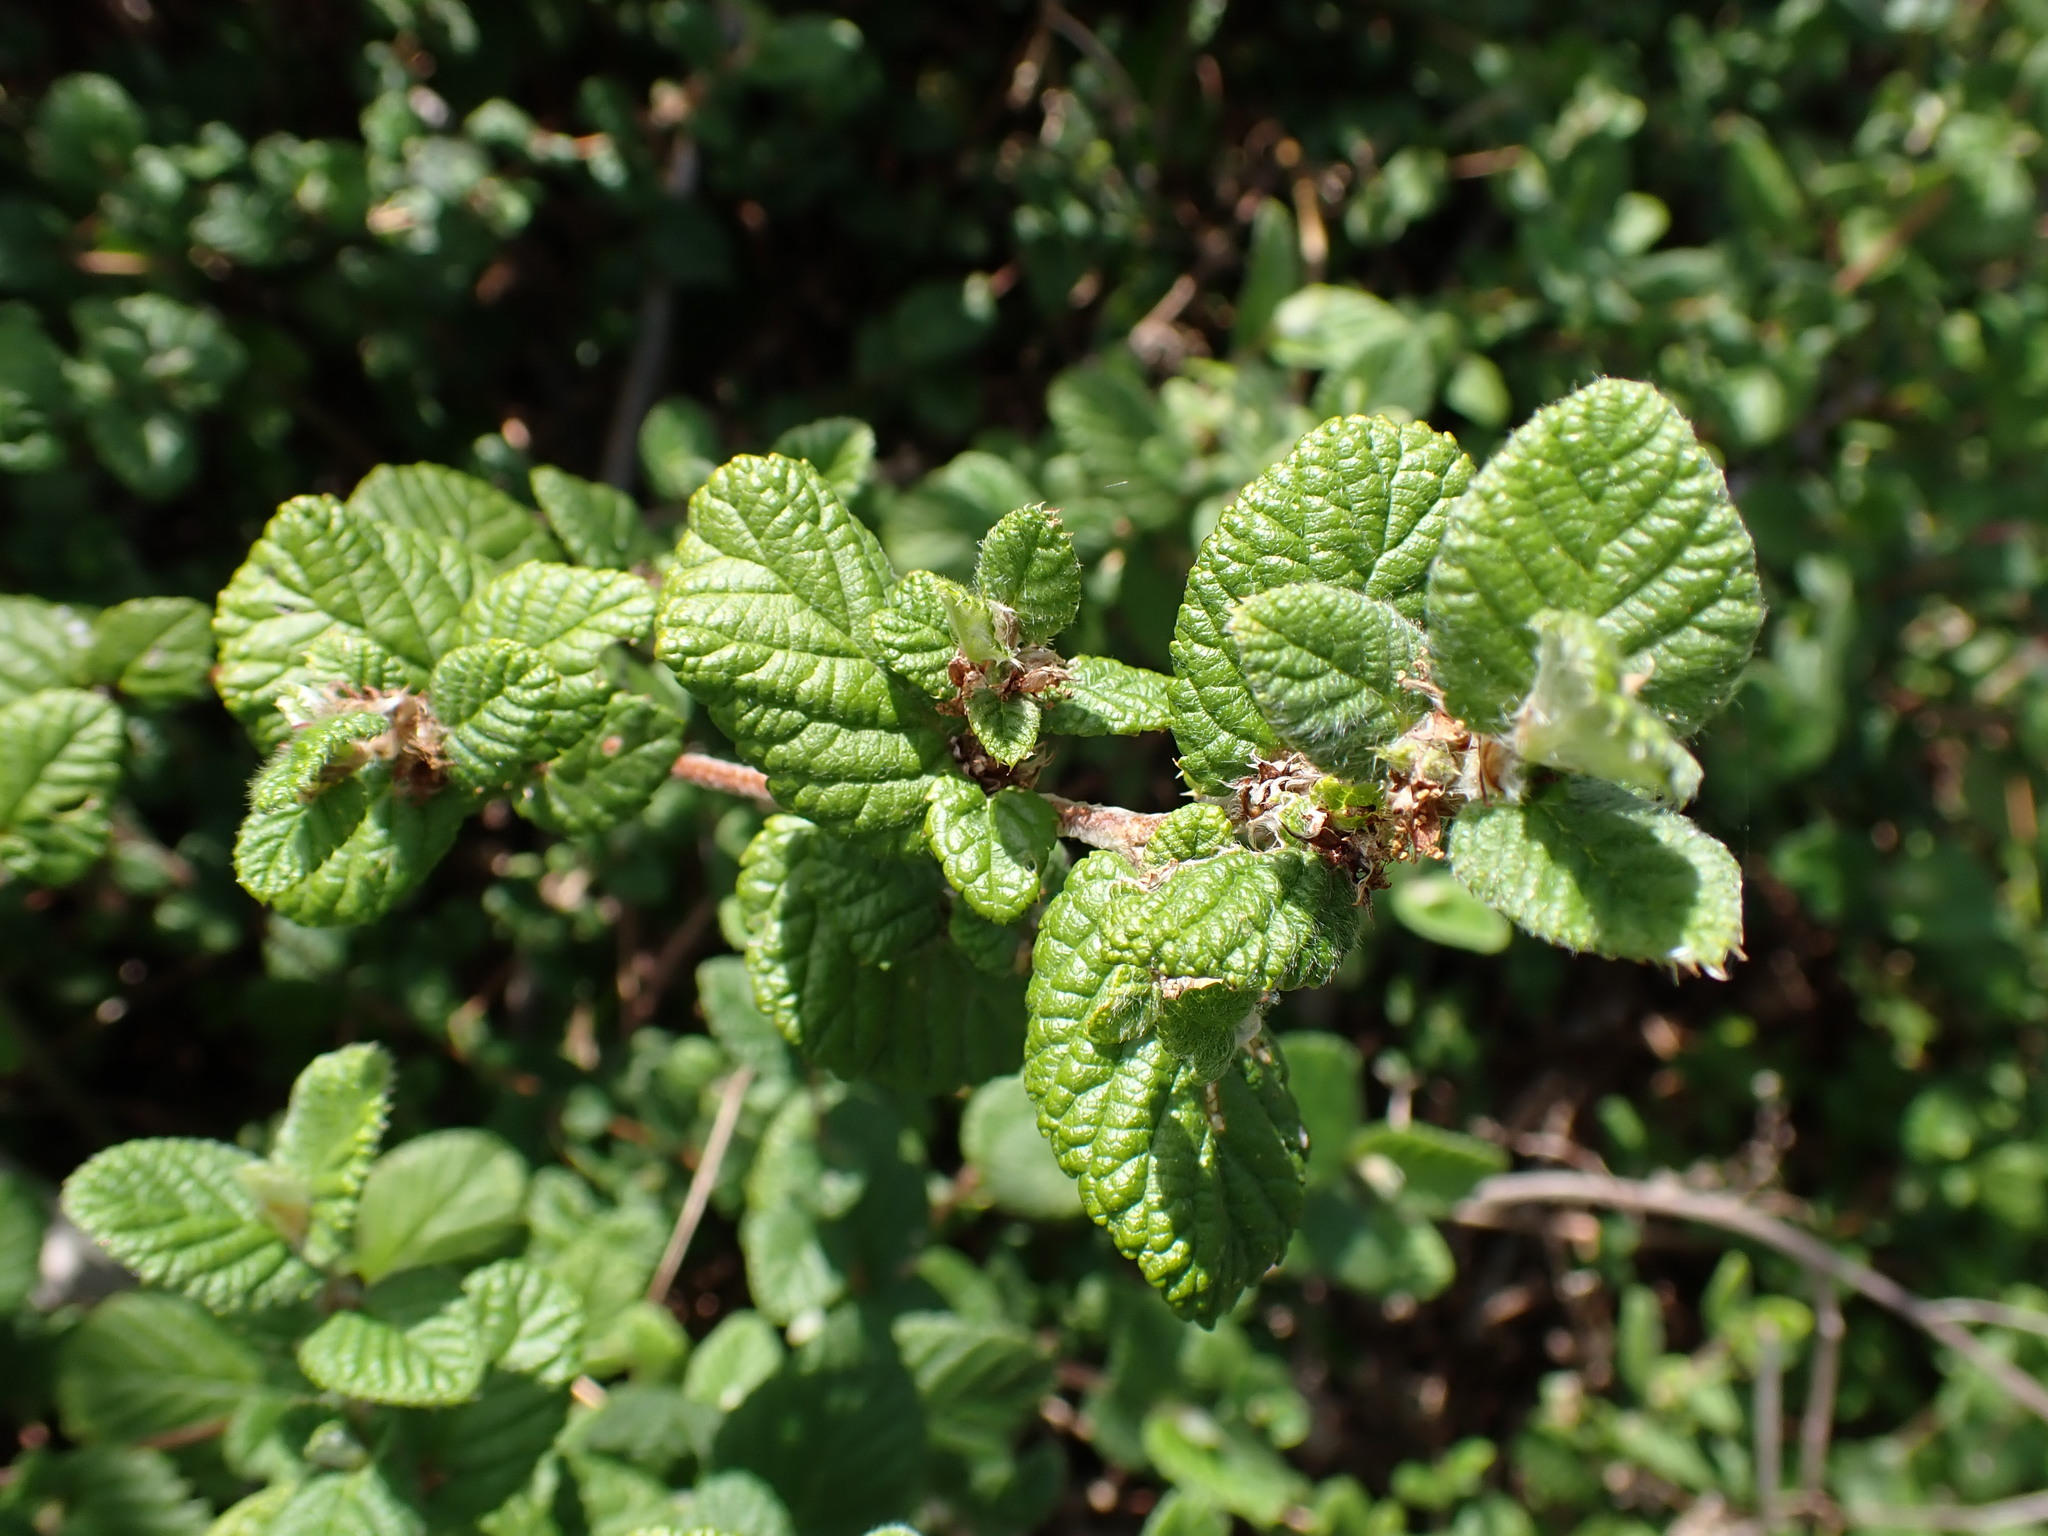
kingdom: Plantae
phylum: Tracheophyta
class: Magnoliopsida
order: Rosales
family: Rosaceae
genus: Cliffortia
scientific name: Cliffortia odorata
